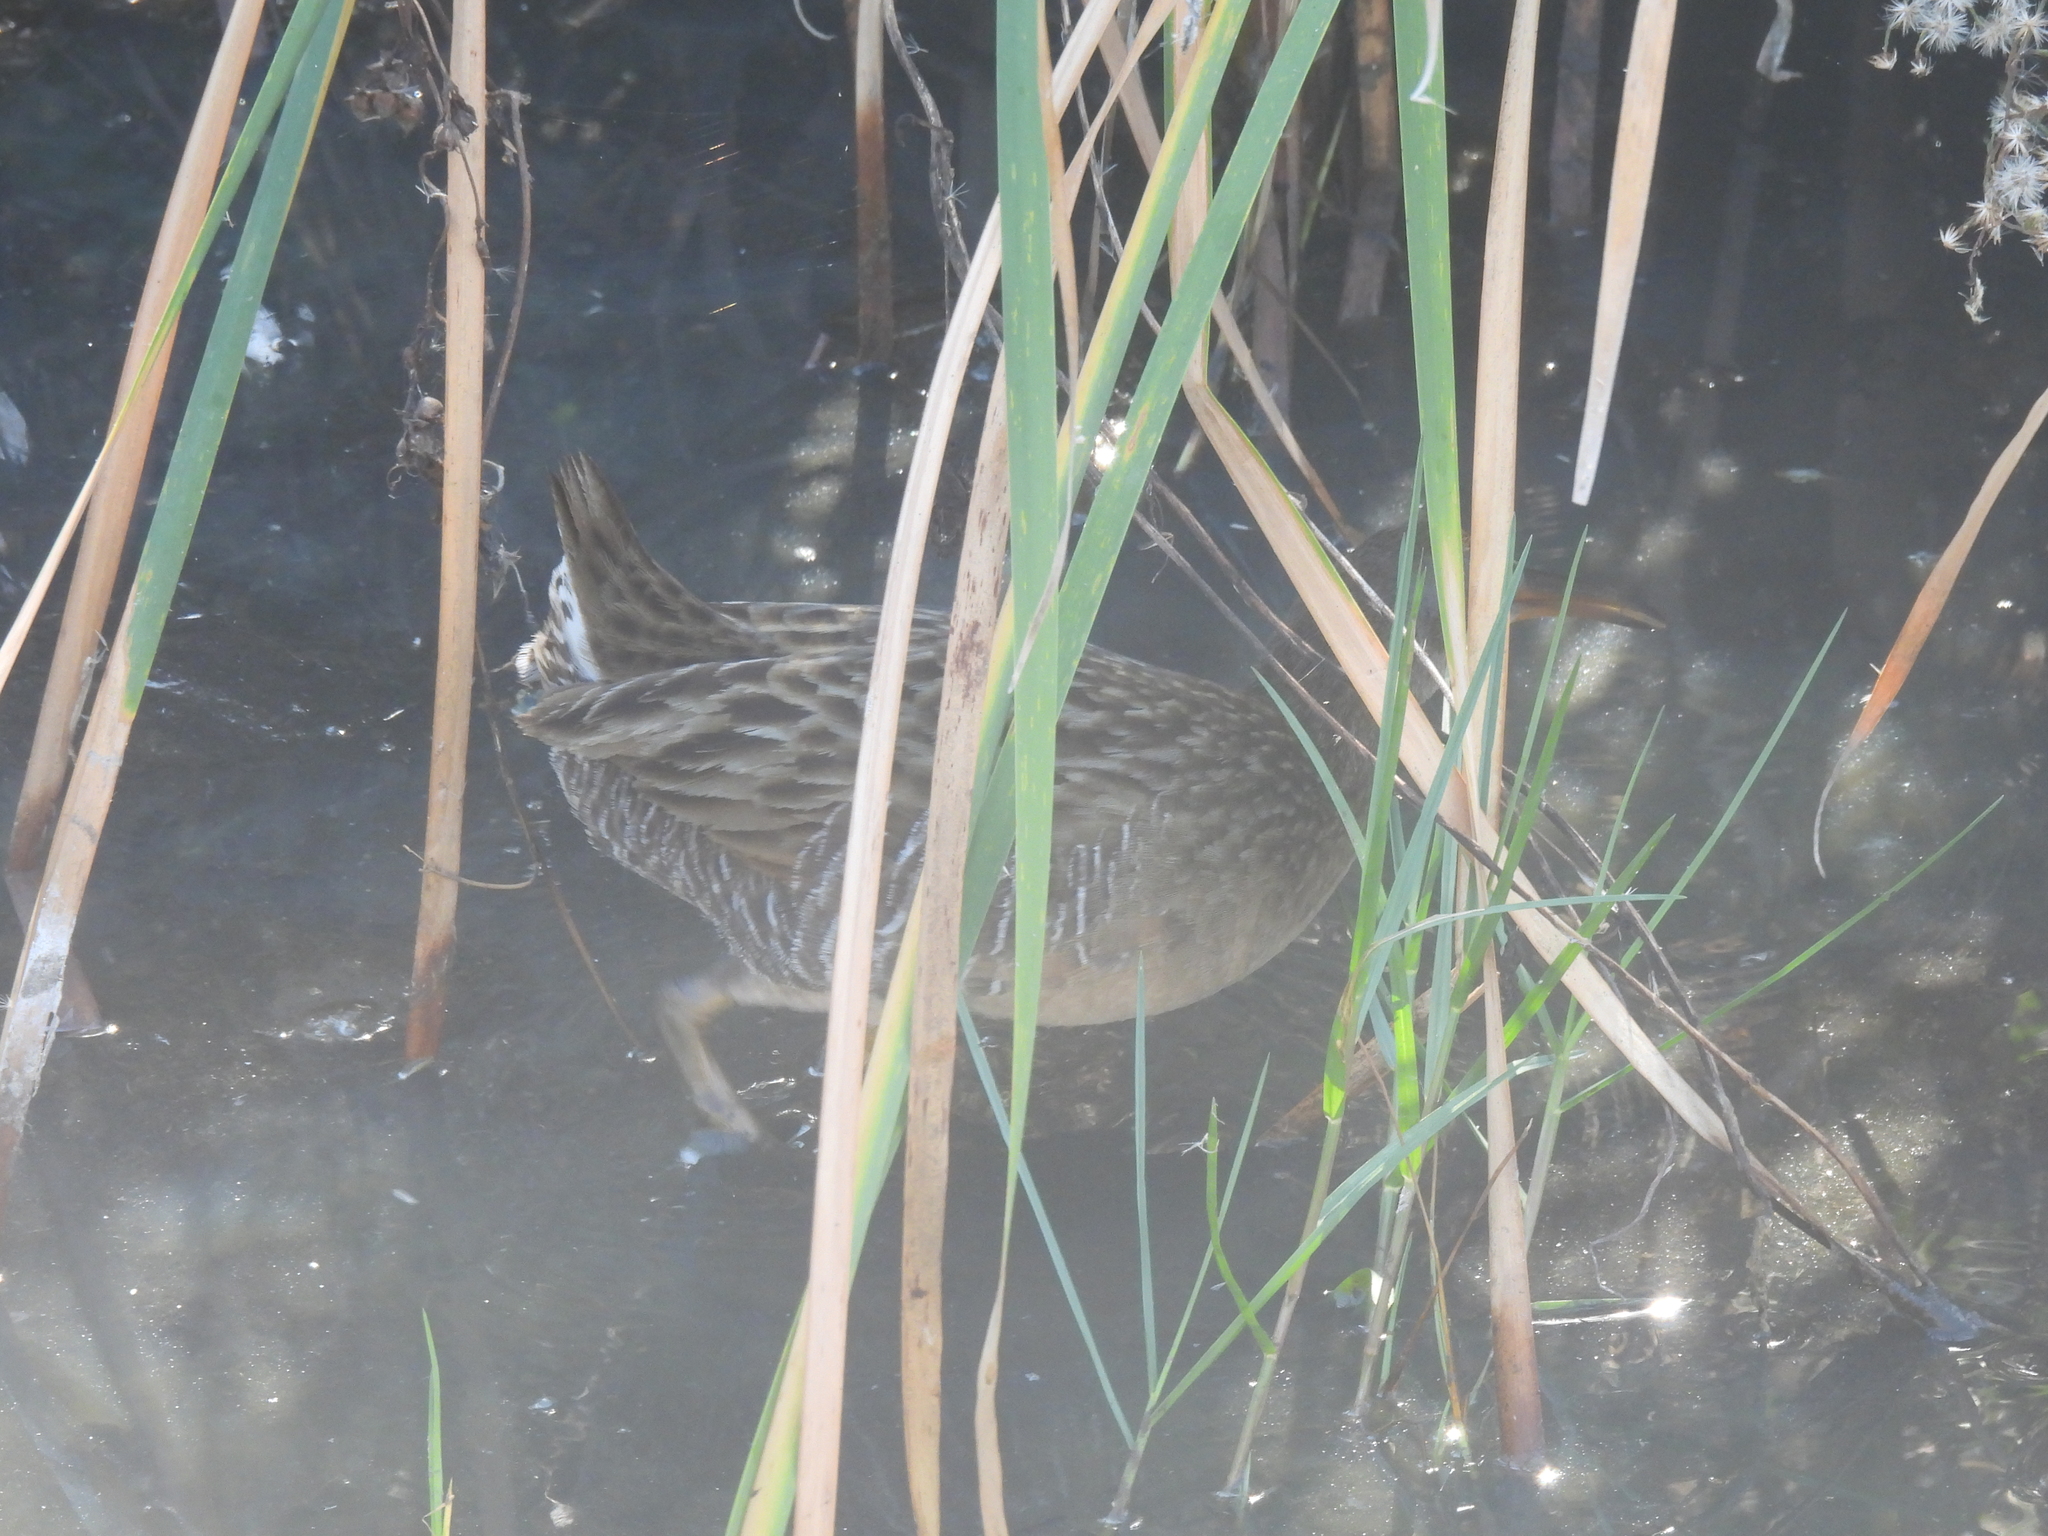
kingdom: Animalia
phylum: Chordata
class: Aves
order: Gruiformes
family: Rallidae
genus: Rallus
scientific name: Rallus crepitans
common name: Clapper rail
